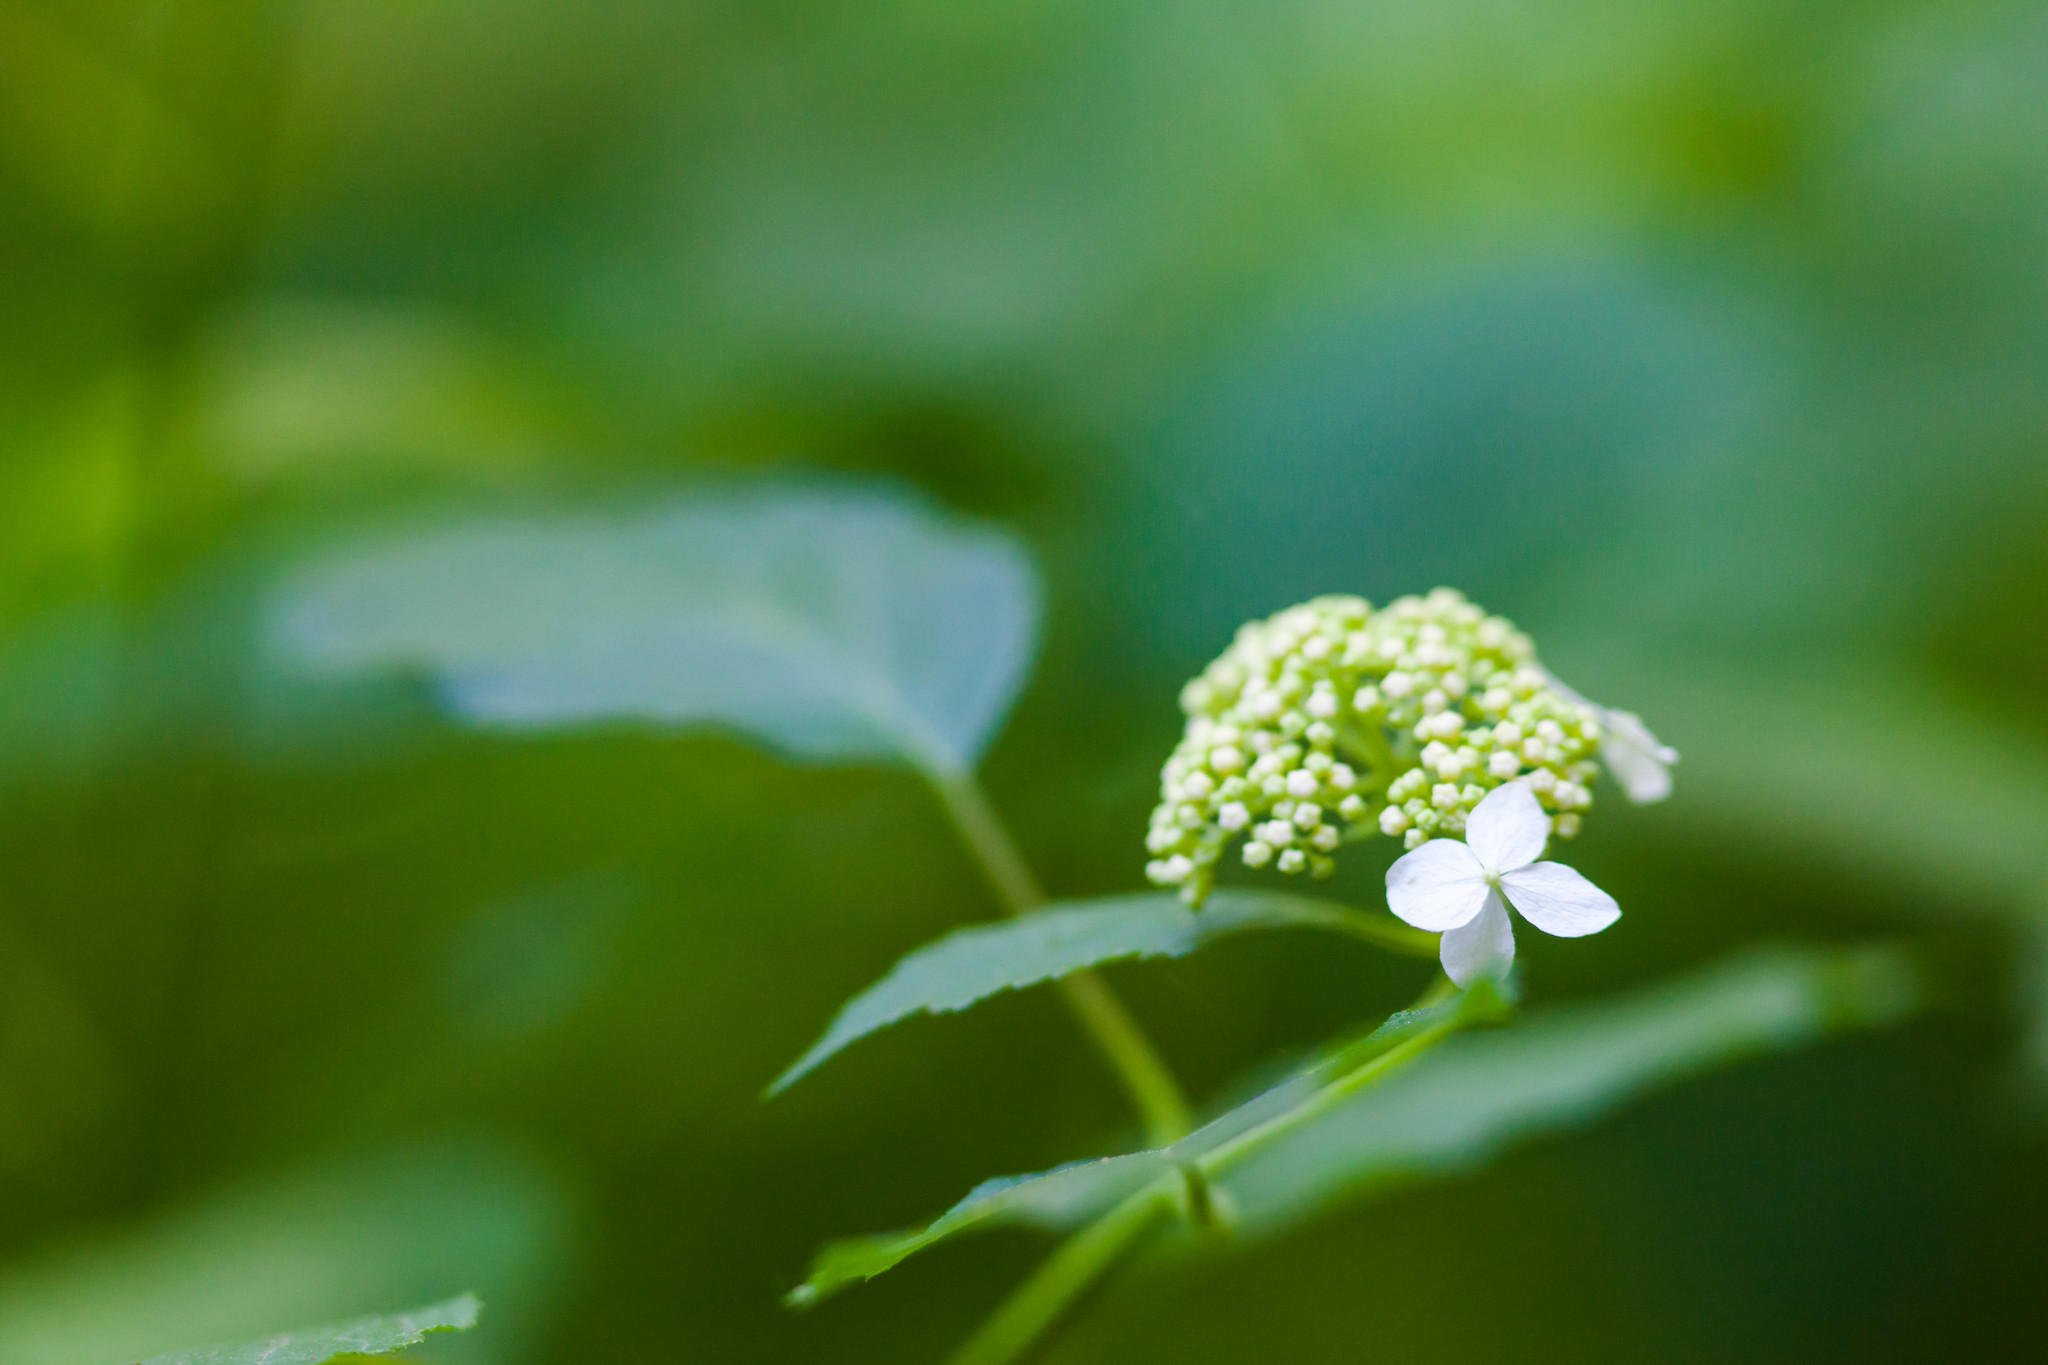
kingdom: Plantae
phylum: Tracheophyta
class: Magnoliopsida
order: Cornales
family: Hydrangeaceae
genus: Hydrangea
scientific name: Hydrangea arborescens
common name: Sevenbark
